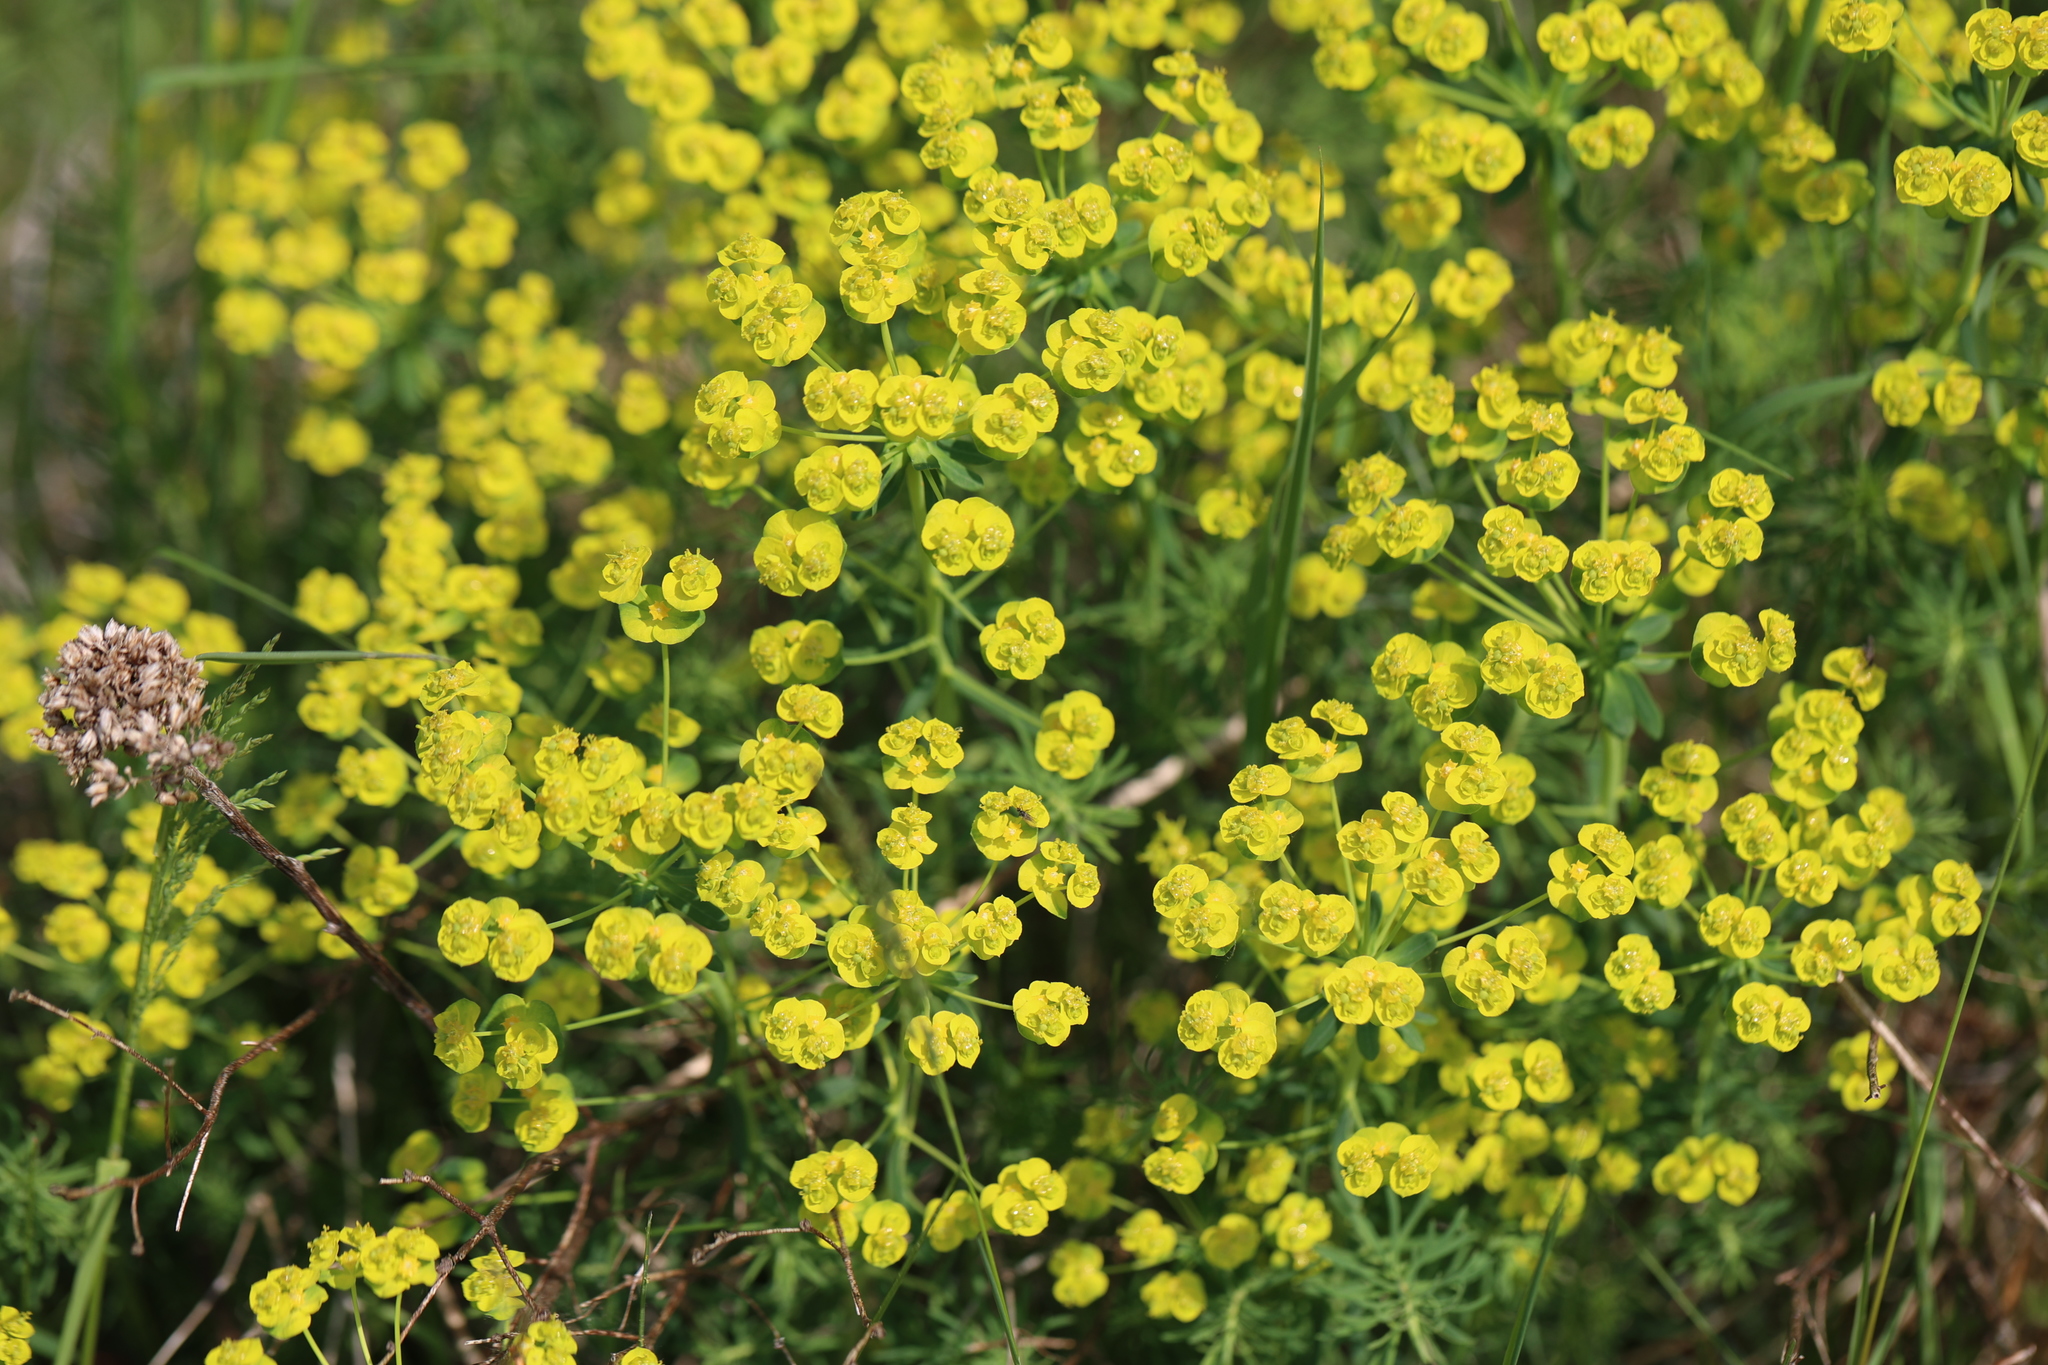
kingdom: Plantae
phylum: Tracheophyta
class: Magnoliopsida
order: Malpighiales
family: Euphorbiaceae
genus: Euphorbia
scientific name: Euphorbia cyparissias
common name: Cypress spurge
